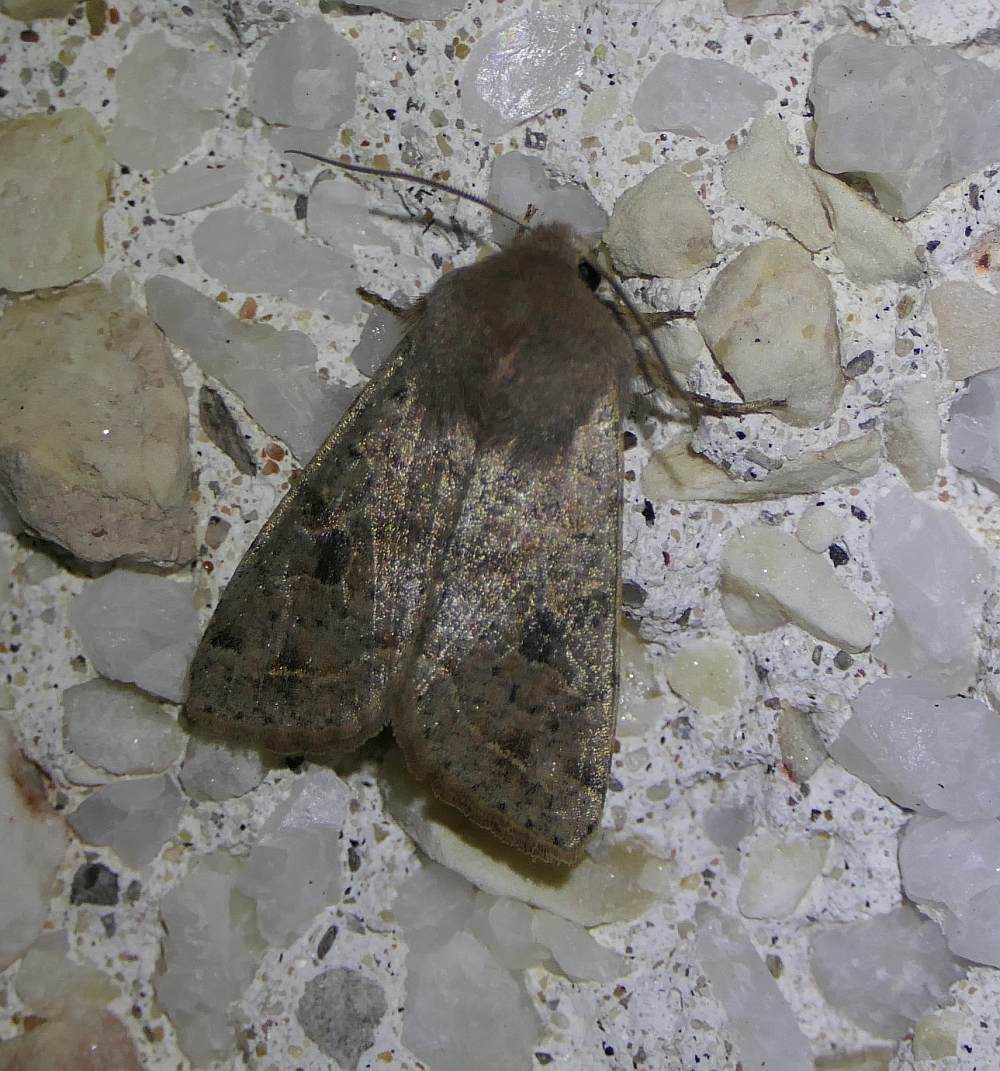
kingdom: Animalia
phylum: Arthropoda
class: Insecta
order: Lepidoptera
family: Noctuidae
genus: Orthosia
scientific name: Orthosia hibisci
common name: Green fruitworm
